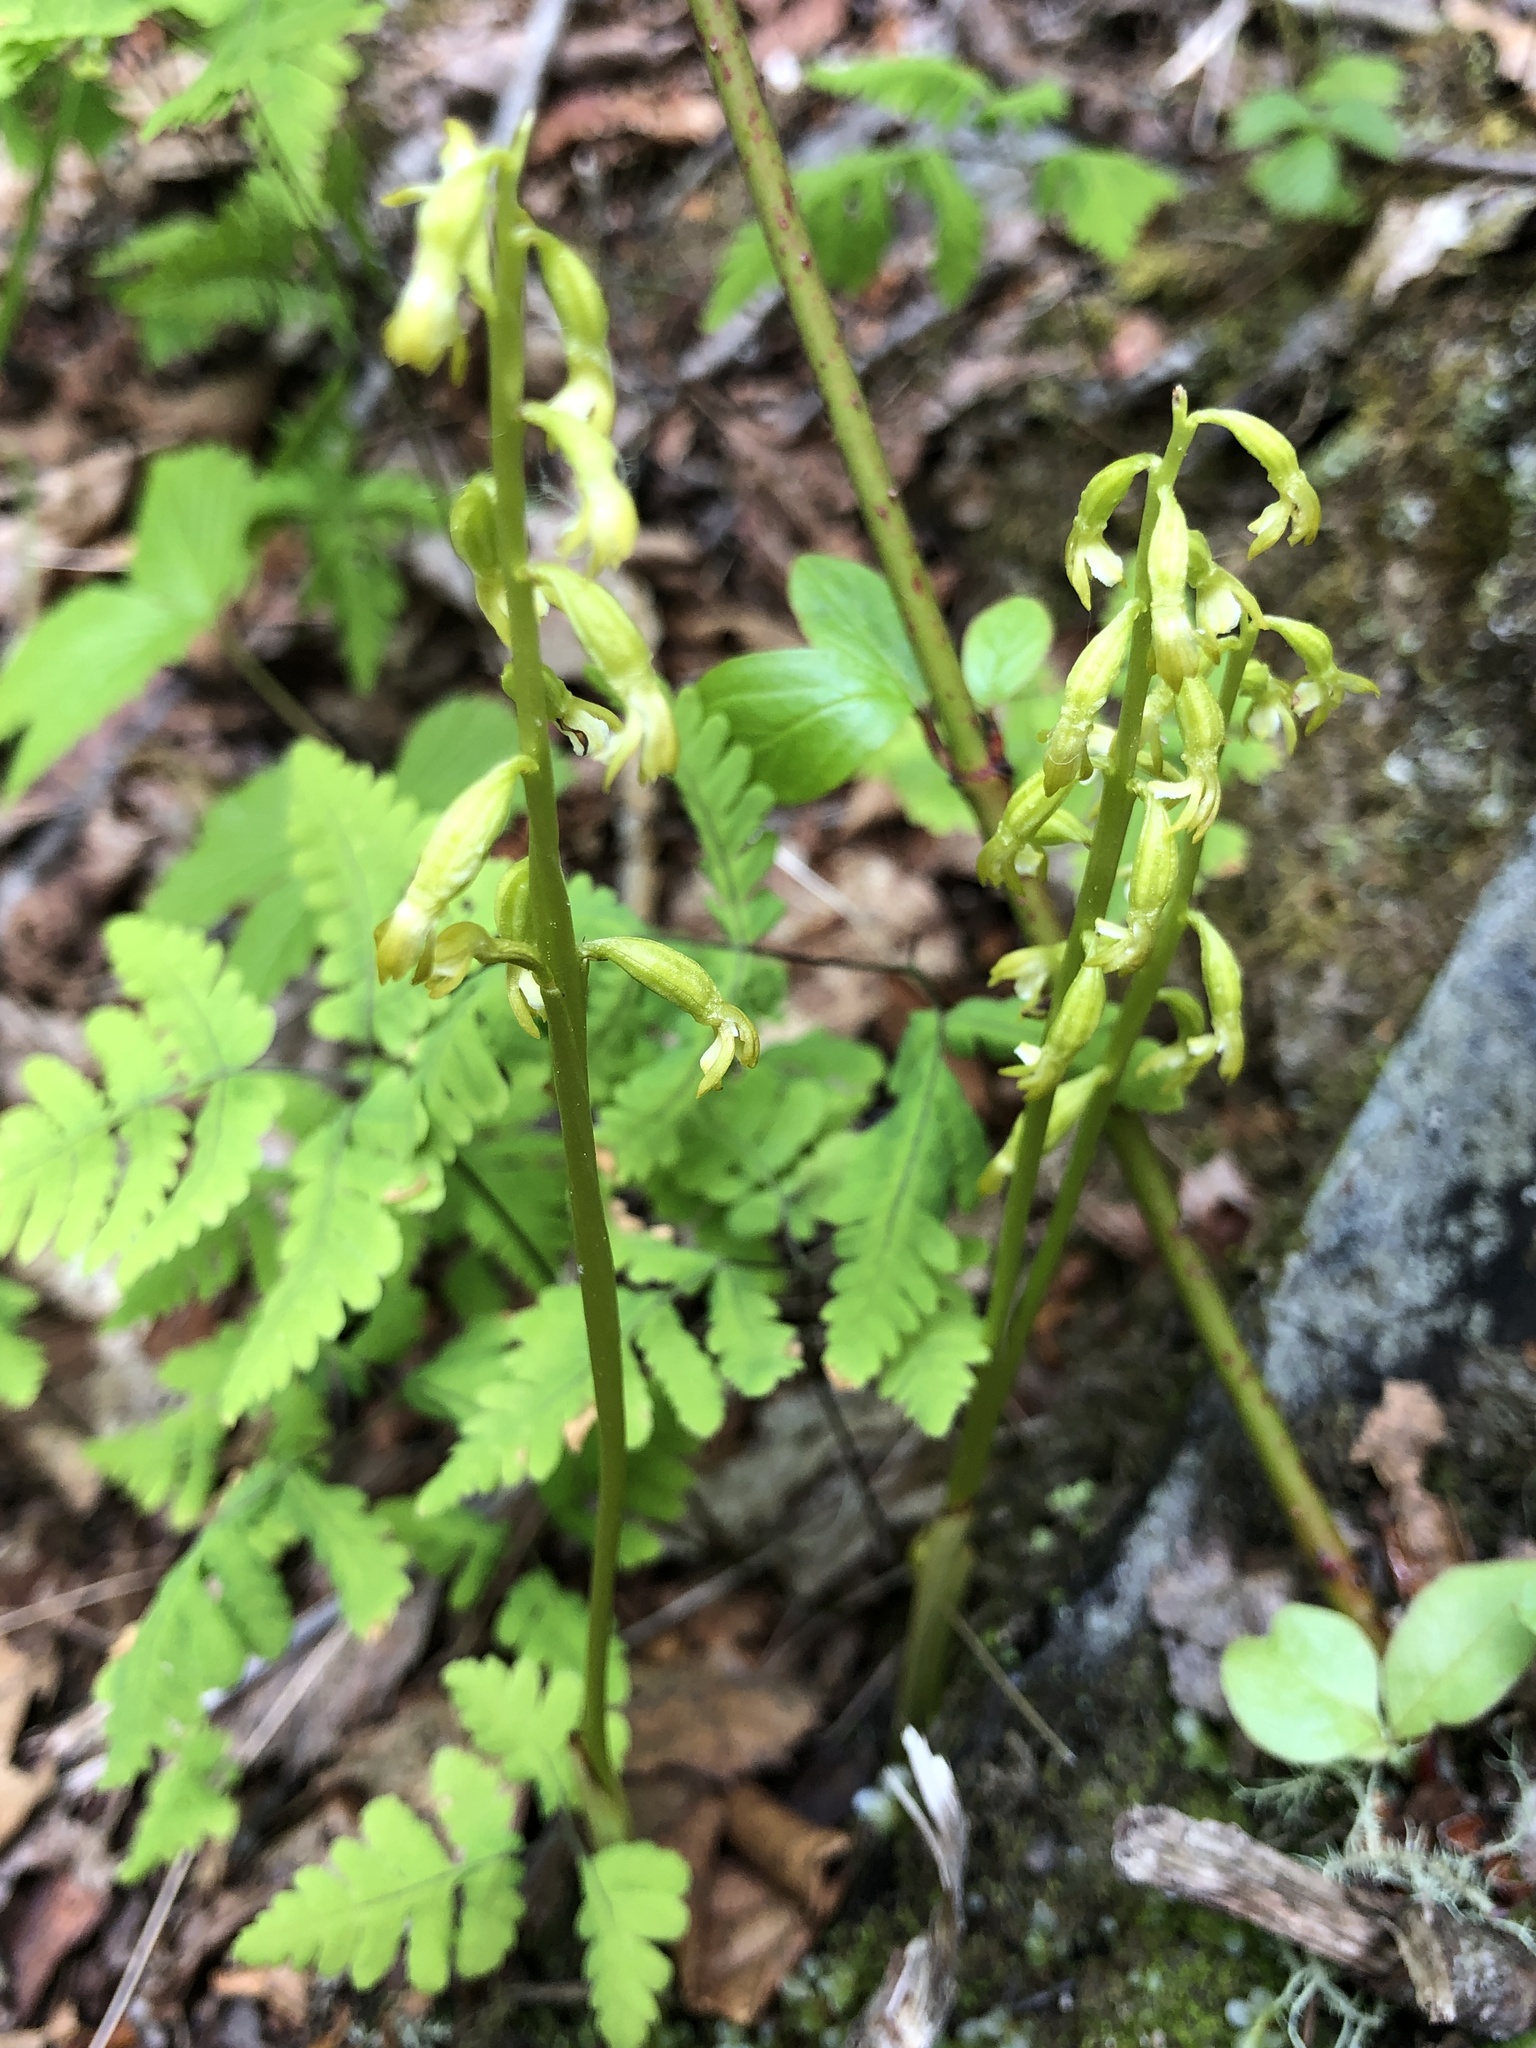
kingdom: Plantae
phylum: Tracheophyta
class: Liliopsida
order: Asparagales
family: Orchidaceae
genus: Corallorhiza
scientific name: Corallorhiza trifida
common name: Yellow coralroot
